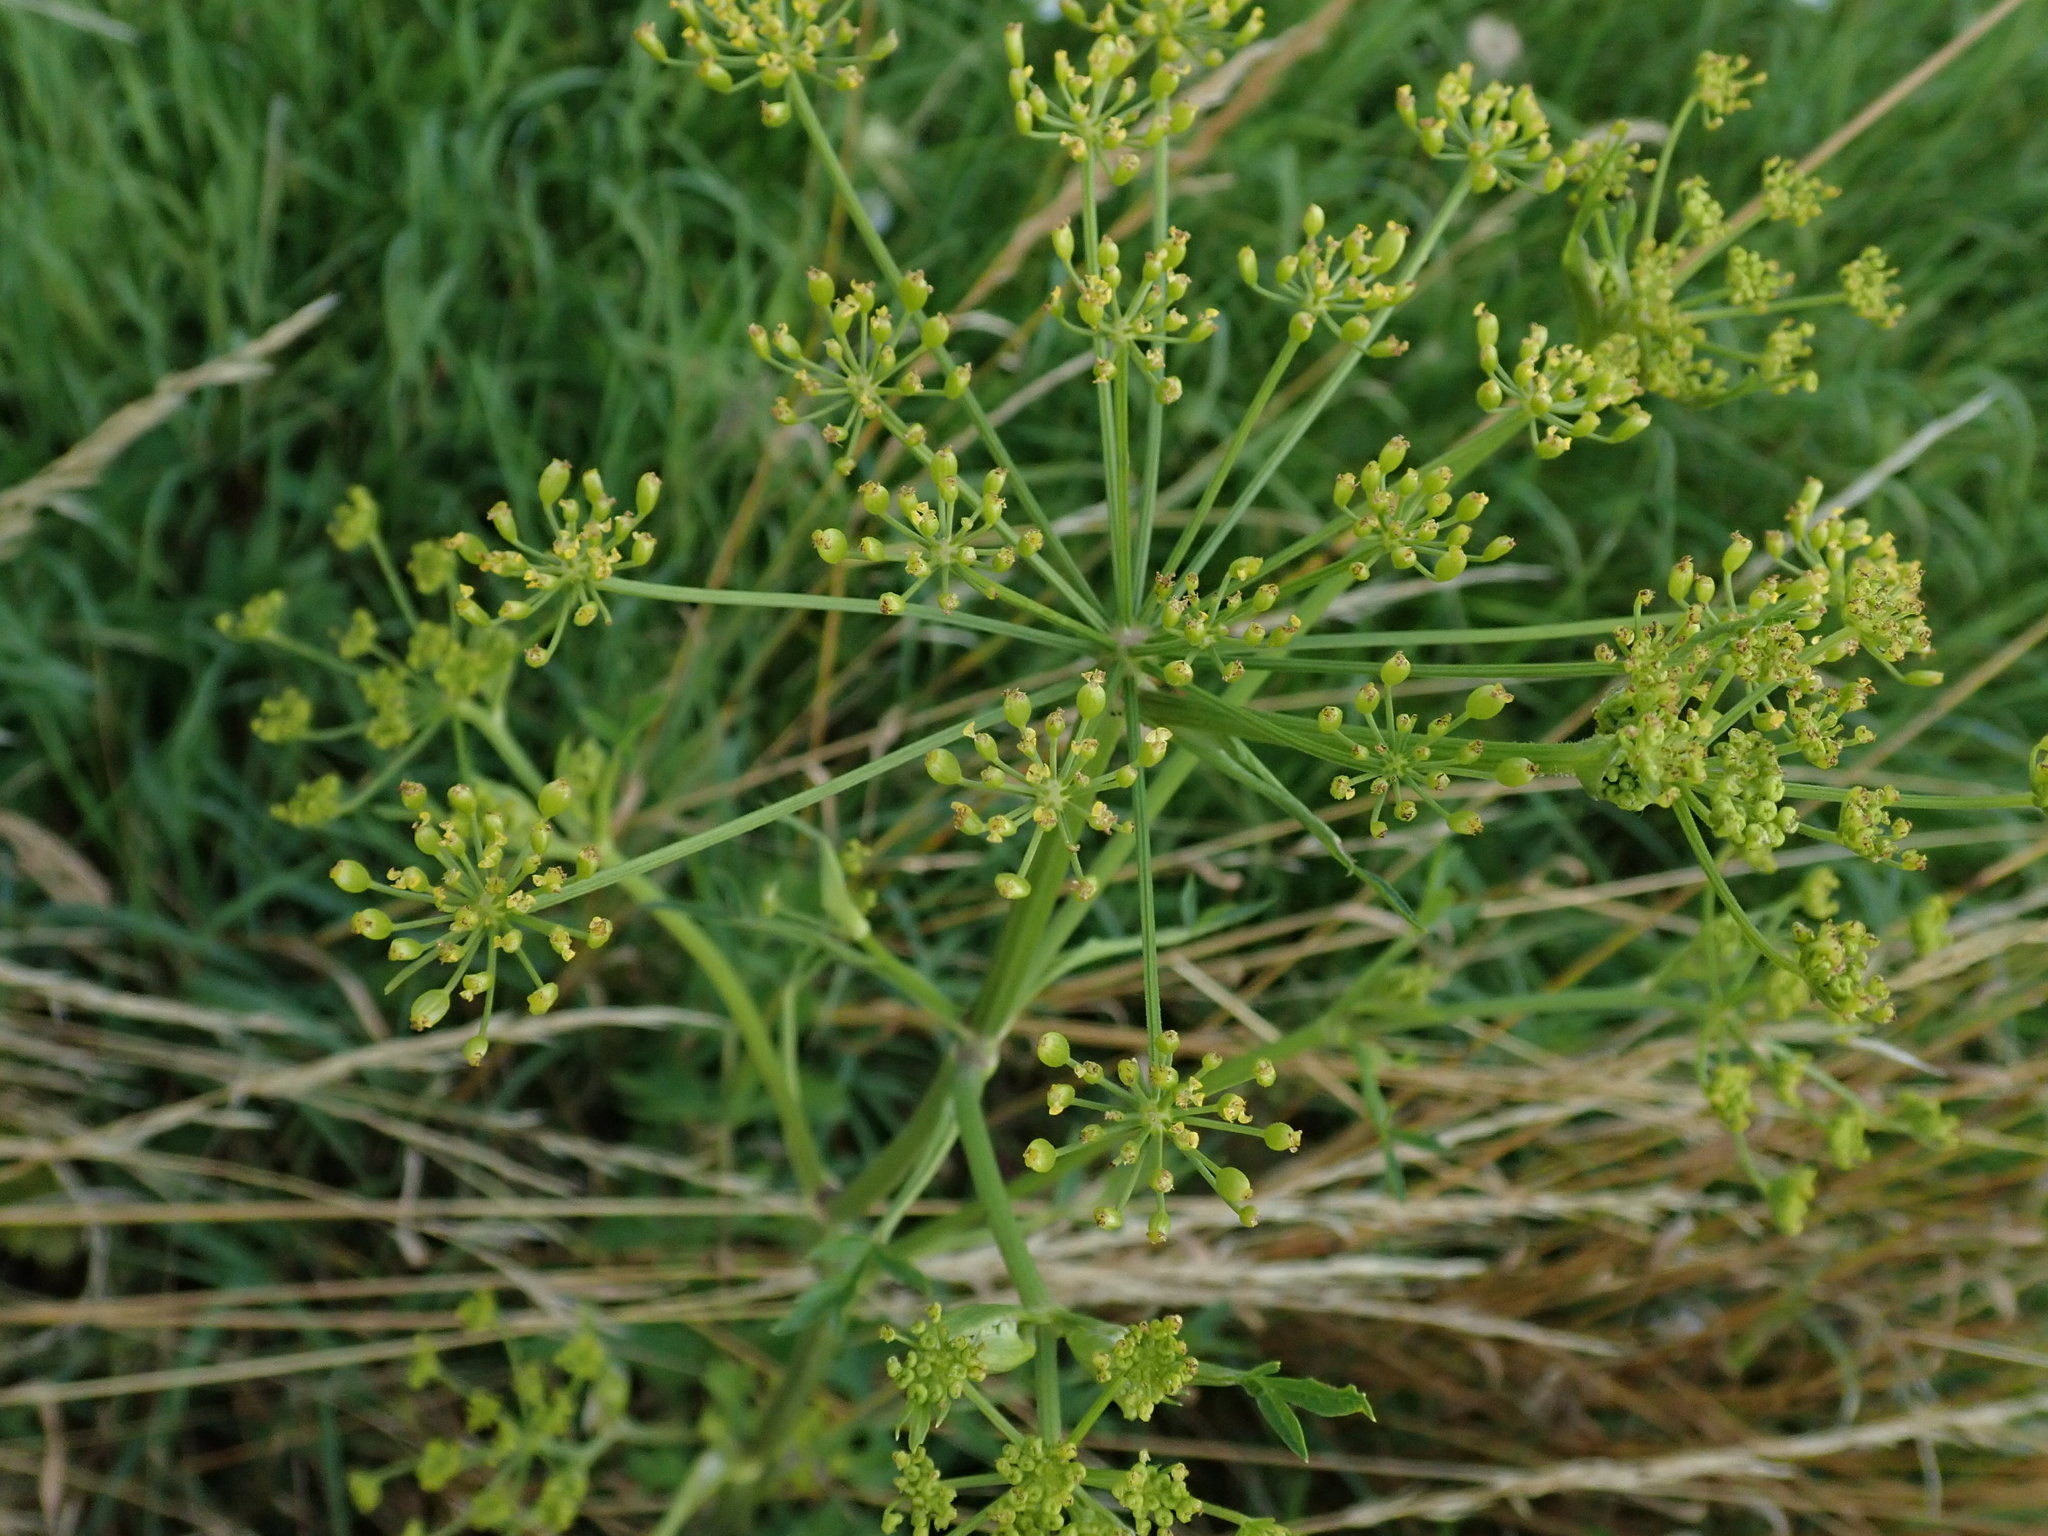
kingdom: Plantae
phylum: Tracheophyta
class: Magnoliopsida
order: Apiales
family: Apiaceae
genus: Pastinaca
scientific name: Pastinaca sativa
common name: Wild parsnip
